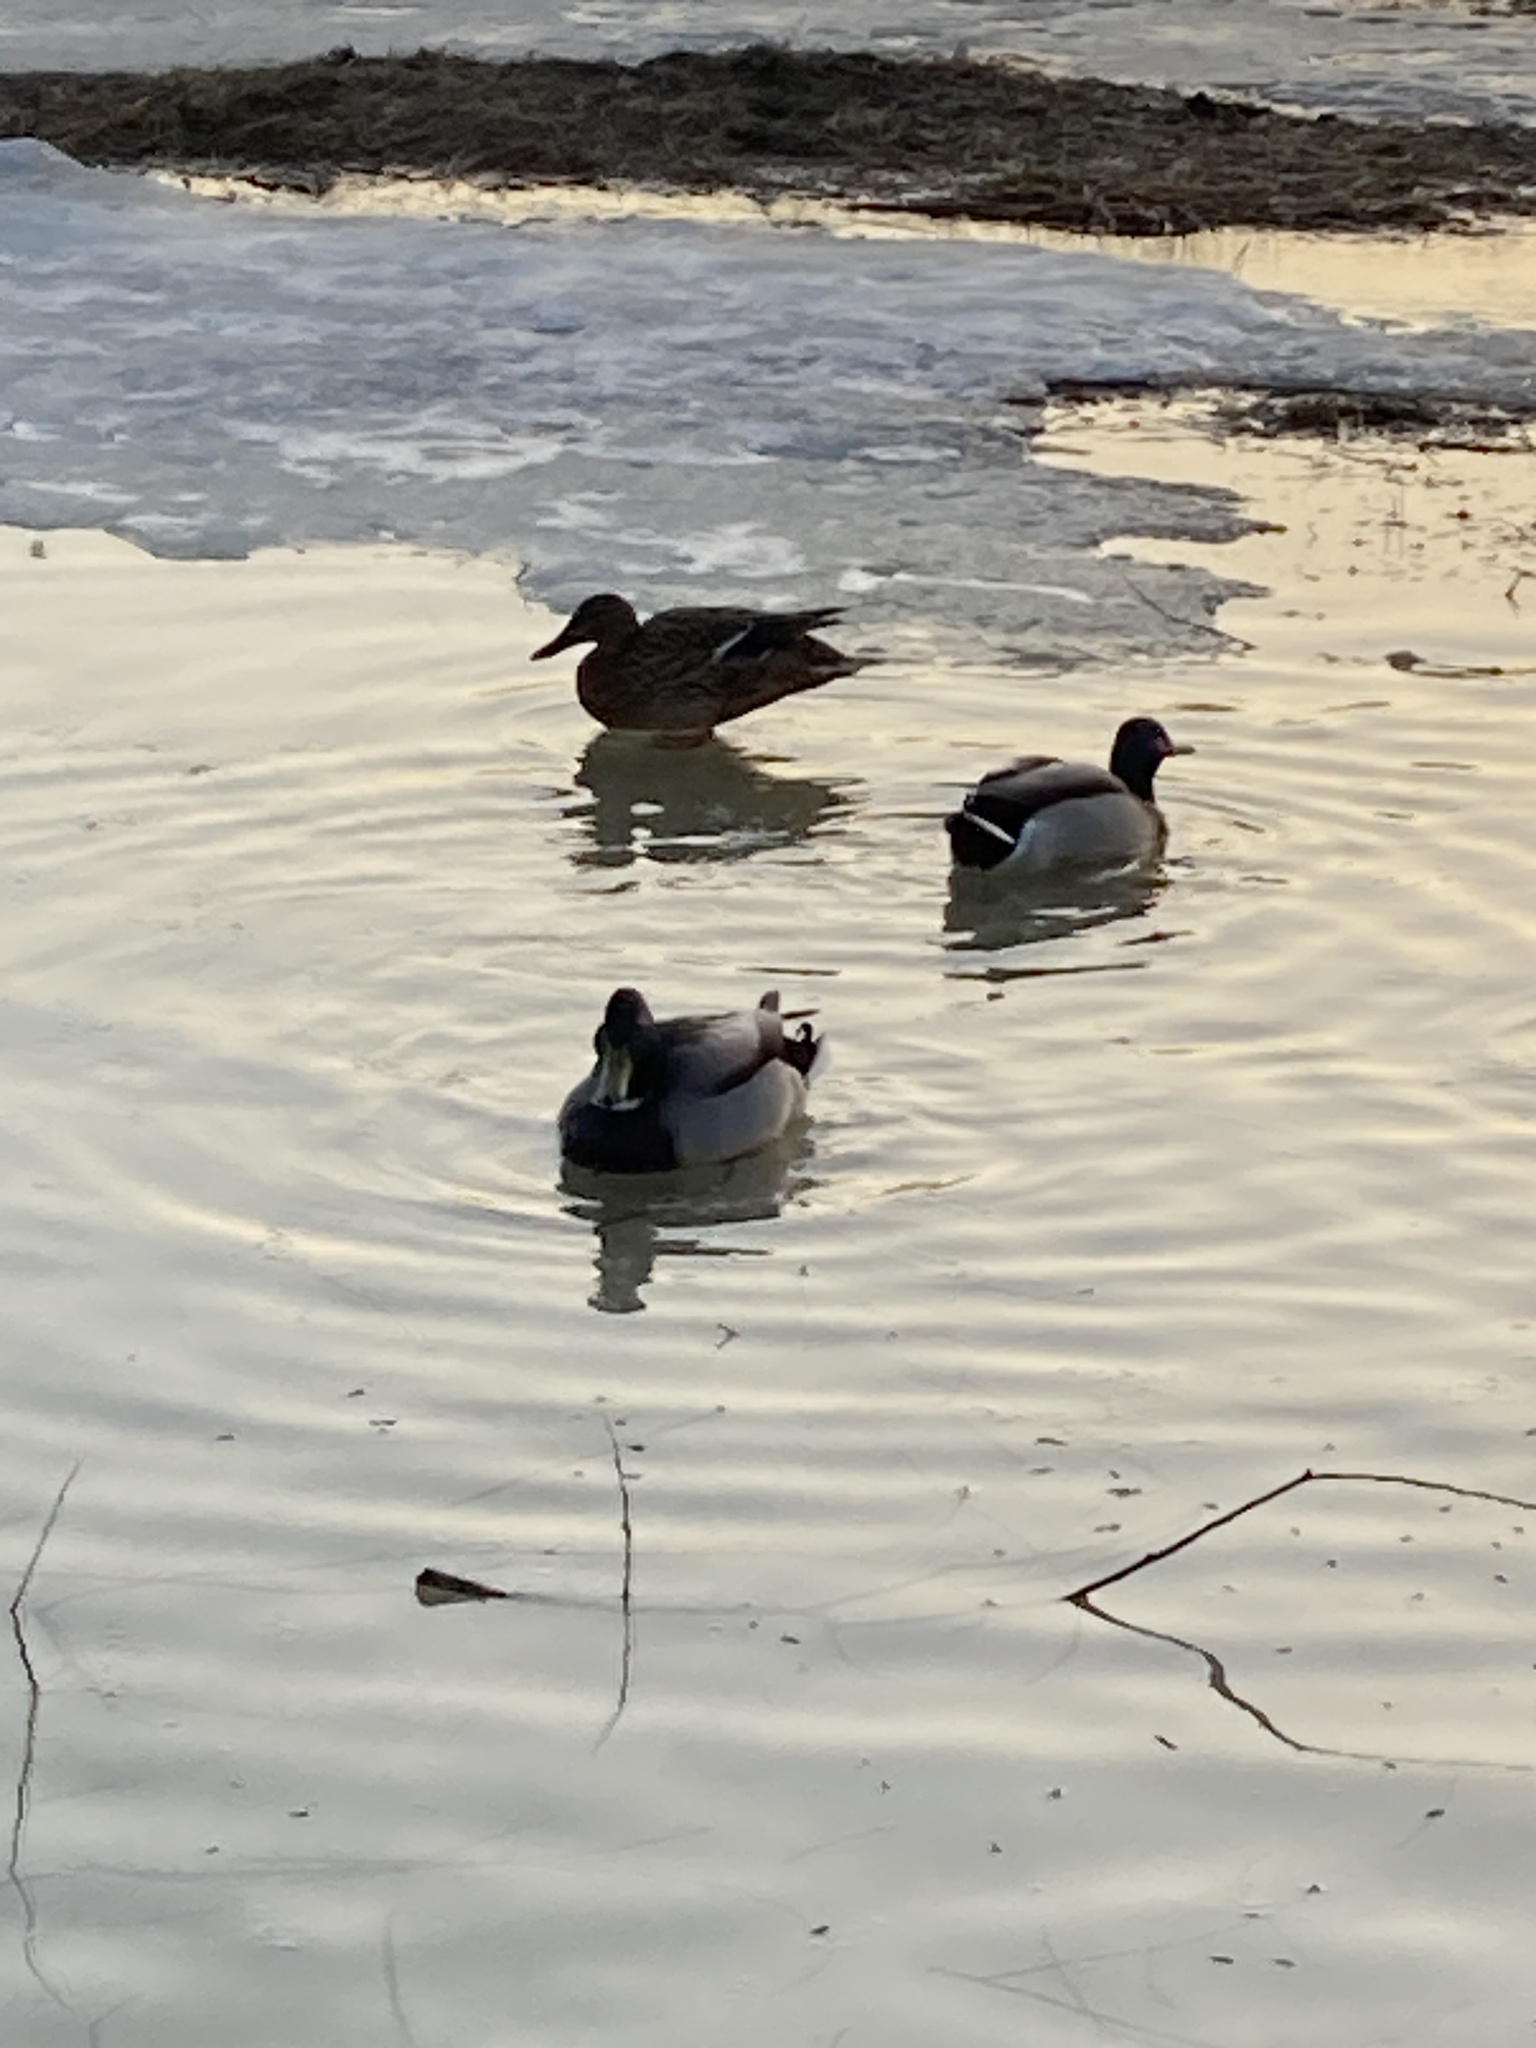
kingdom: Animalia
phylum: Chordata
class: Aves
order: Anseriformes
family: Anatidae
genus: Anas
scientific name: Anas platyrhynchos
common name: Mallard
